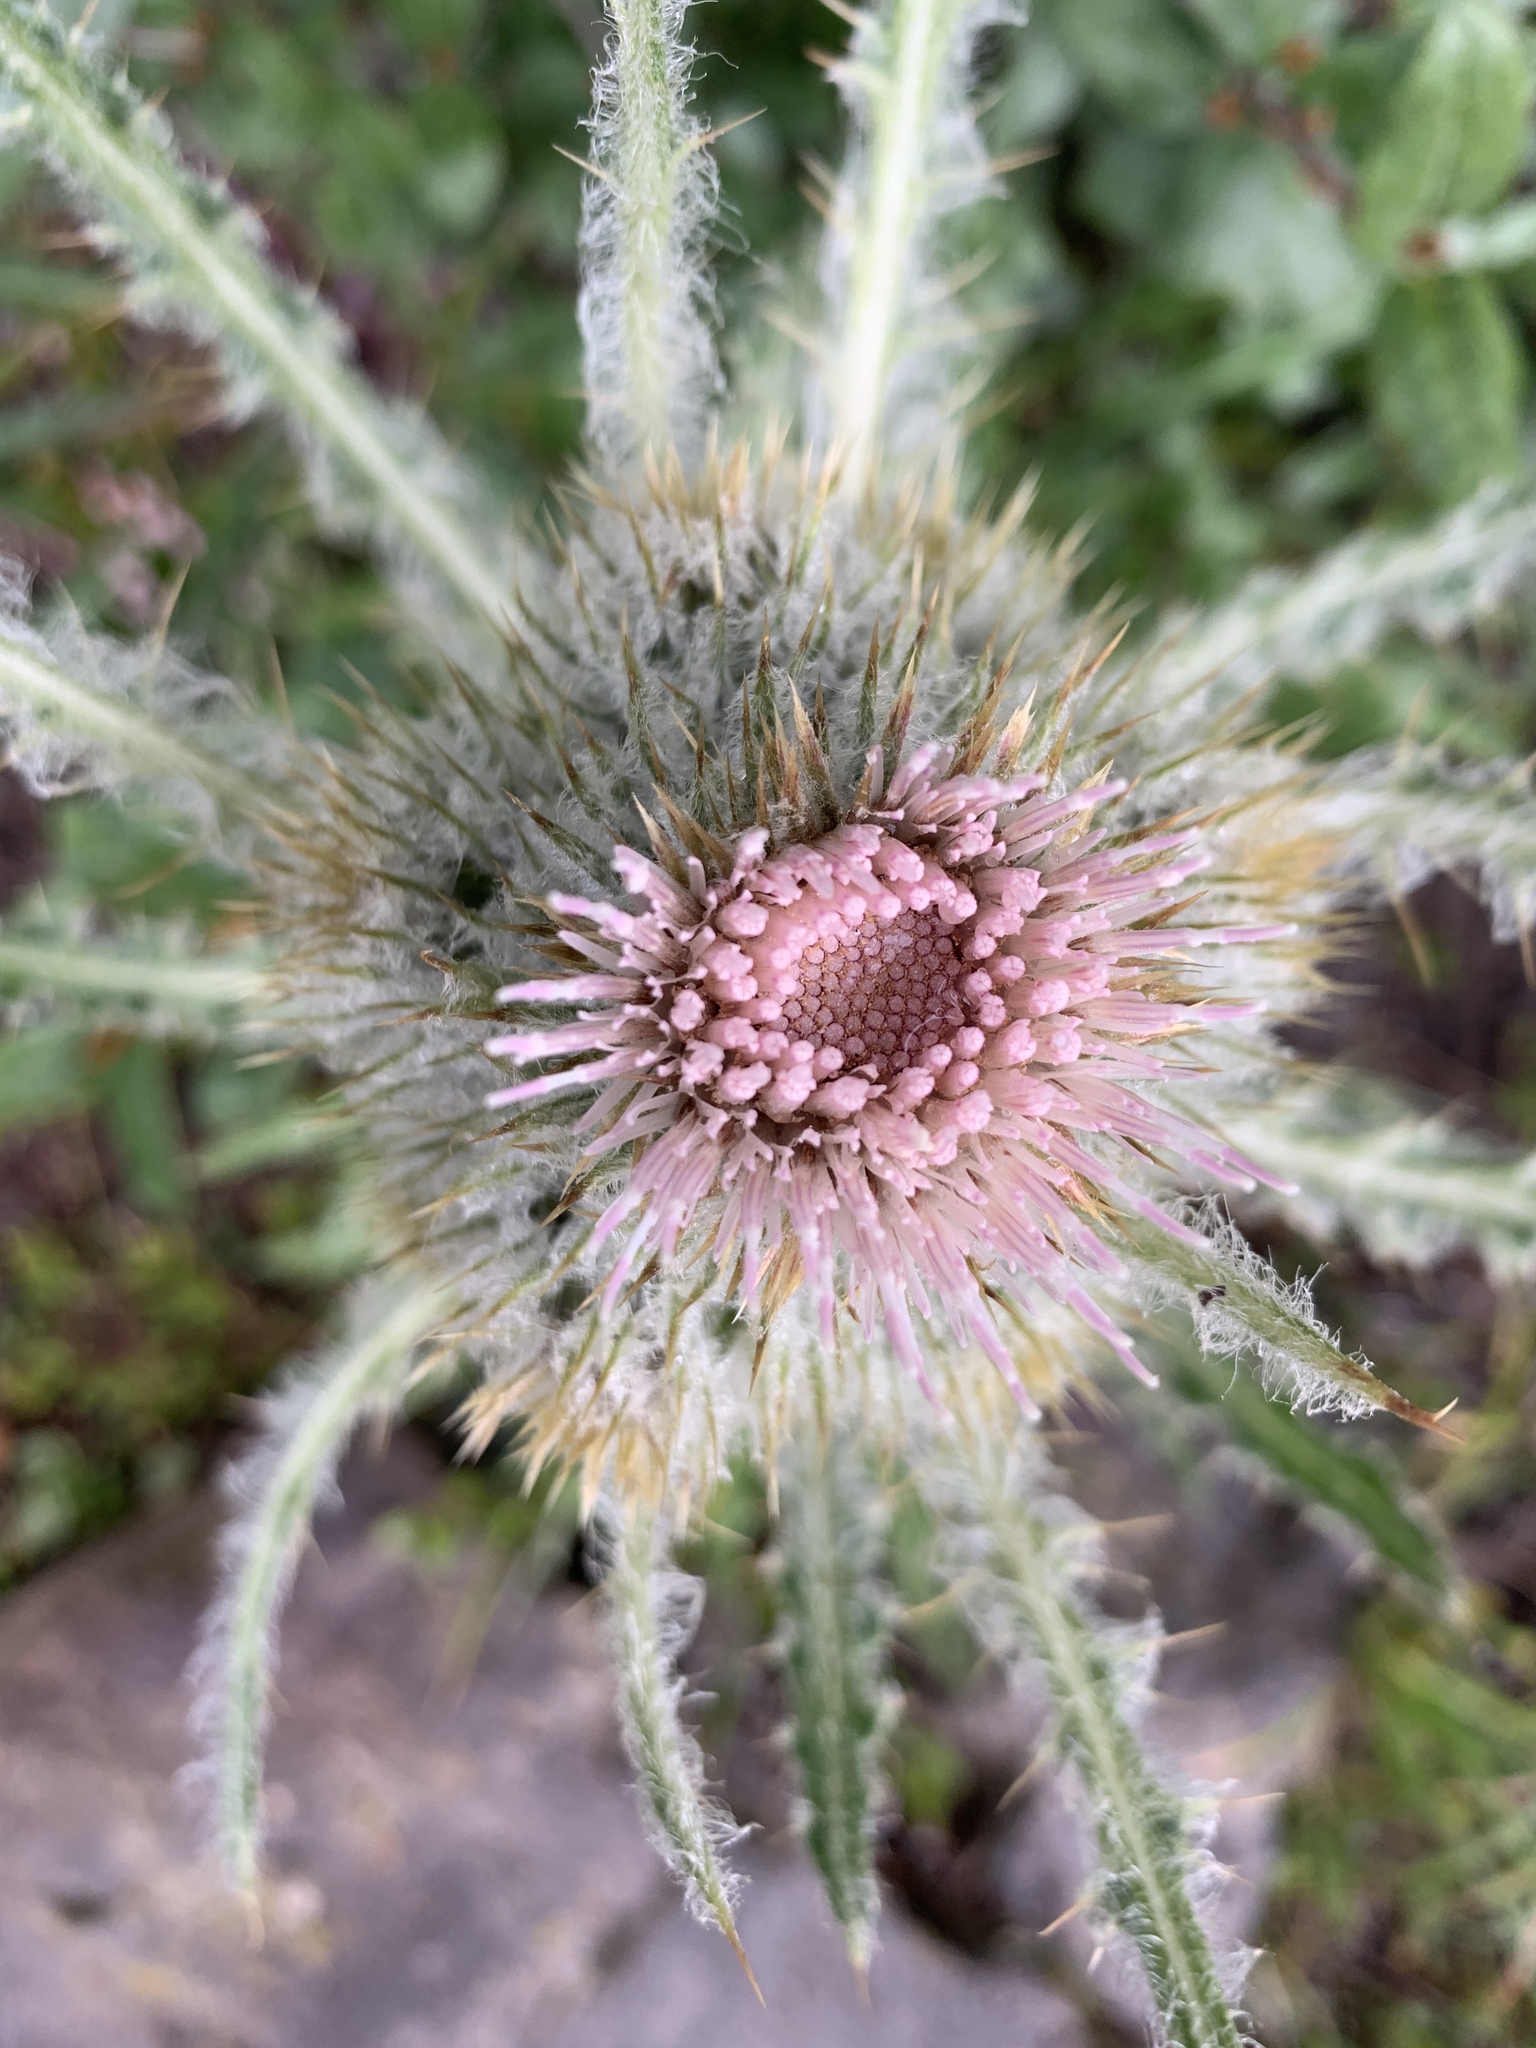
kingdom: Plantae
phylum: Tracheophyta
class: Magnoliopsida
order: Asterales
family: Asteraceae
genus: Cirsium
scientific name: Cirsium hookerianum
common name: Hooker's thistle
